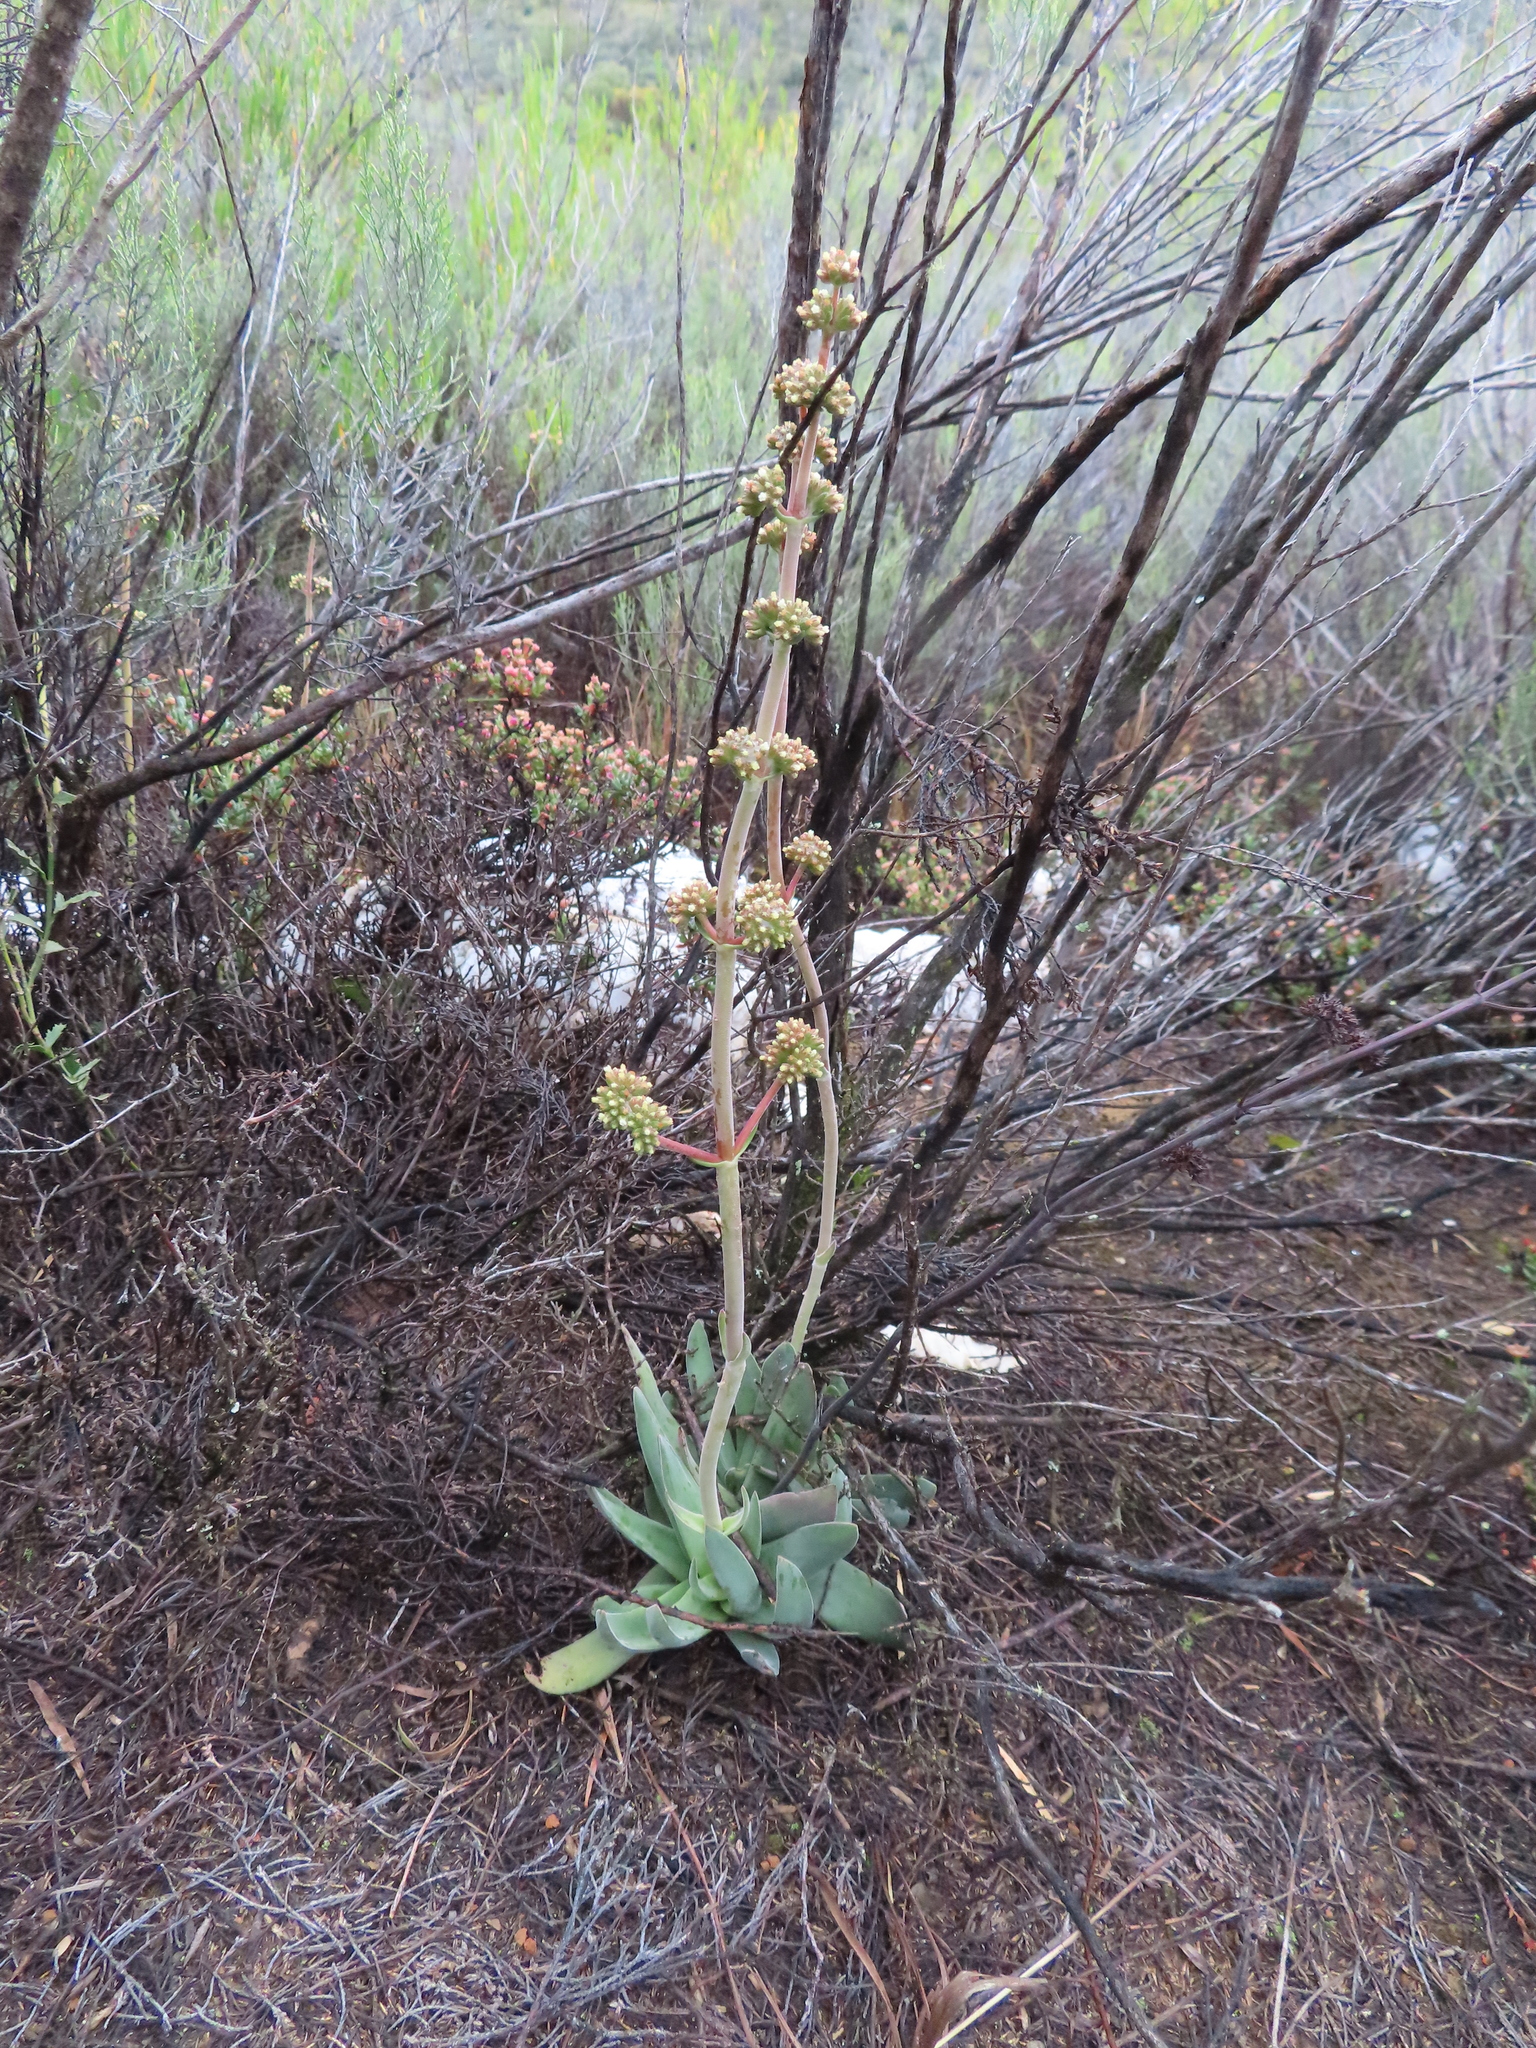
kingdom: Plantae
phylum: Tracheophyta
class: Magnoliopsida
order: Saxifragales
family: Crassulaceae
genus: Crassula
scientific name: Crassula nudicaulis
